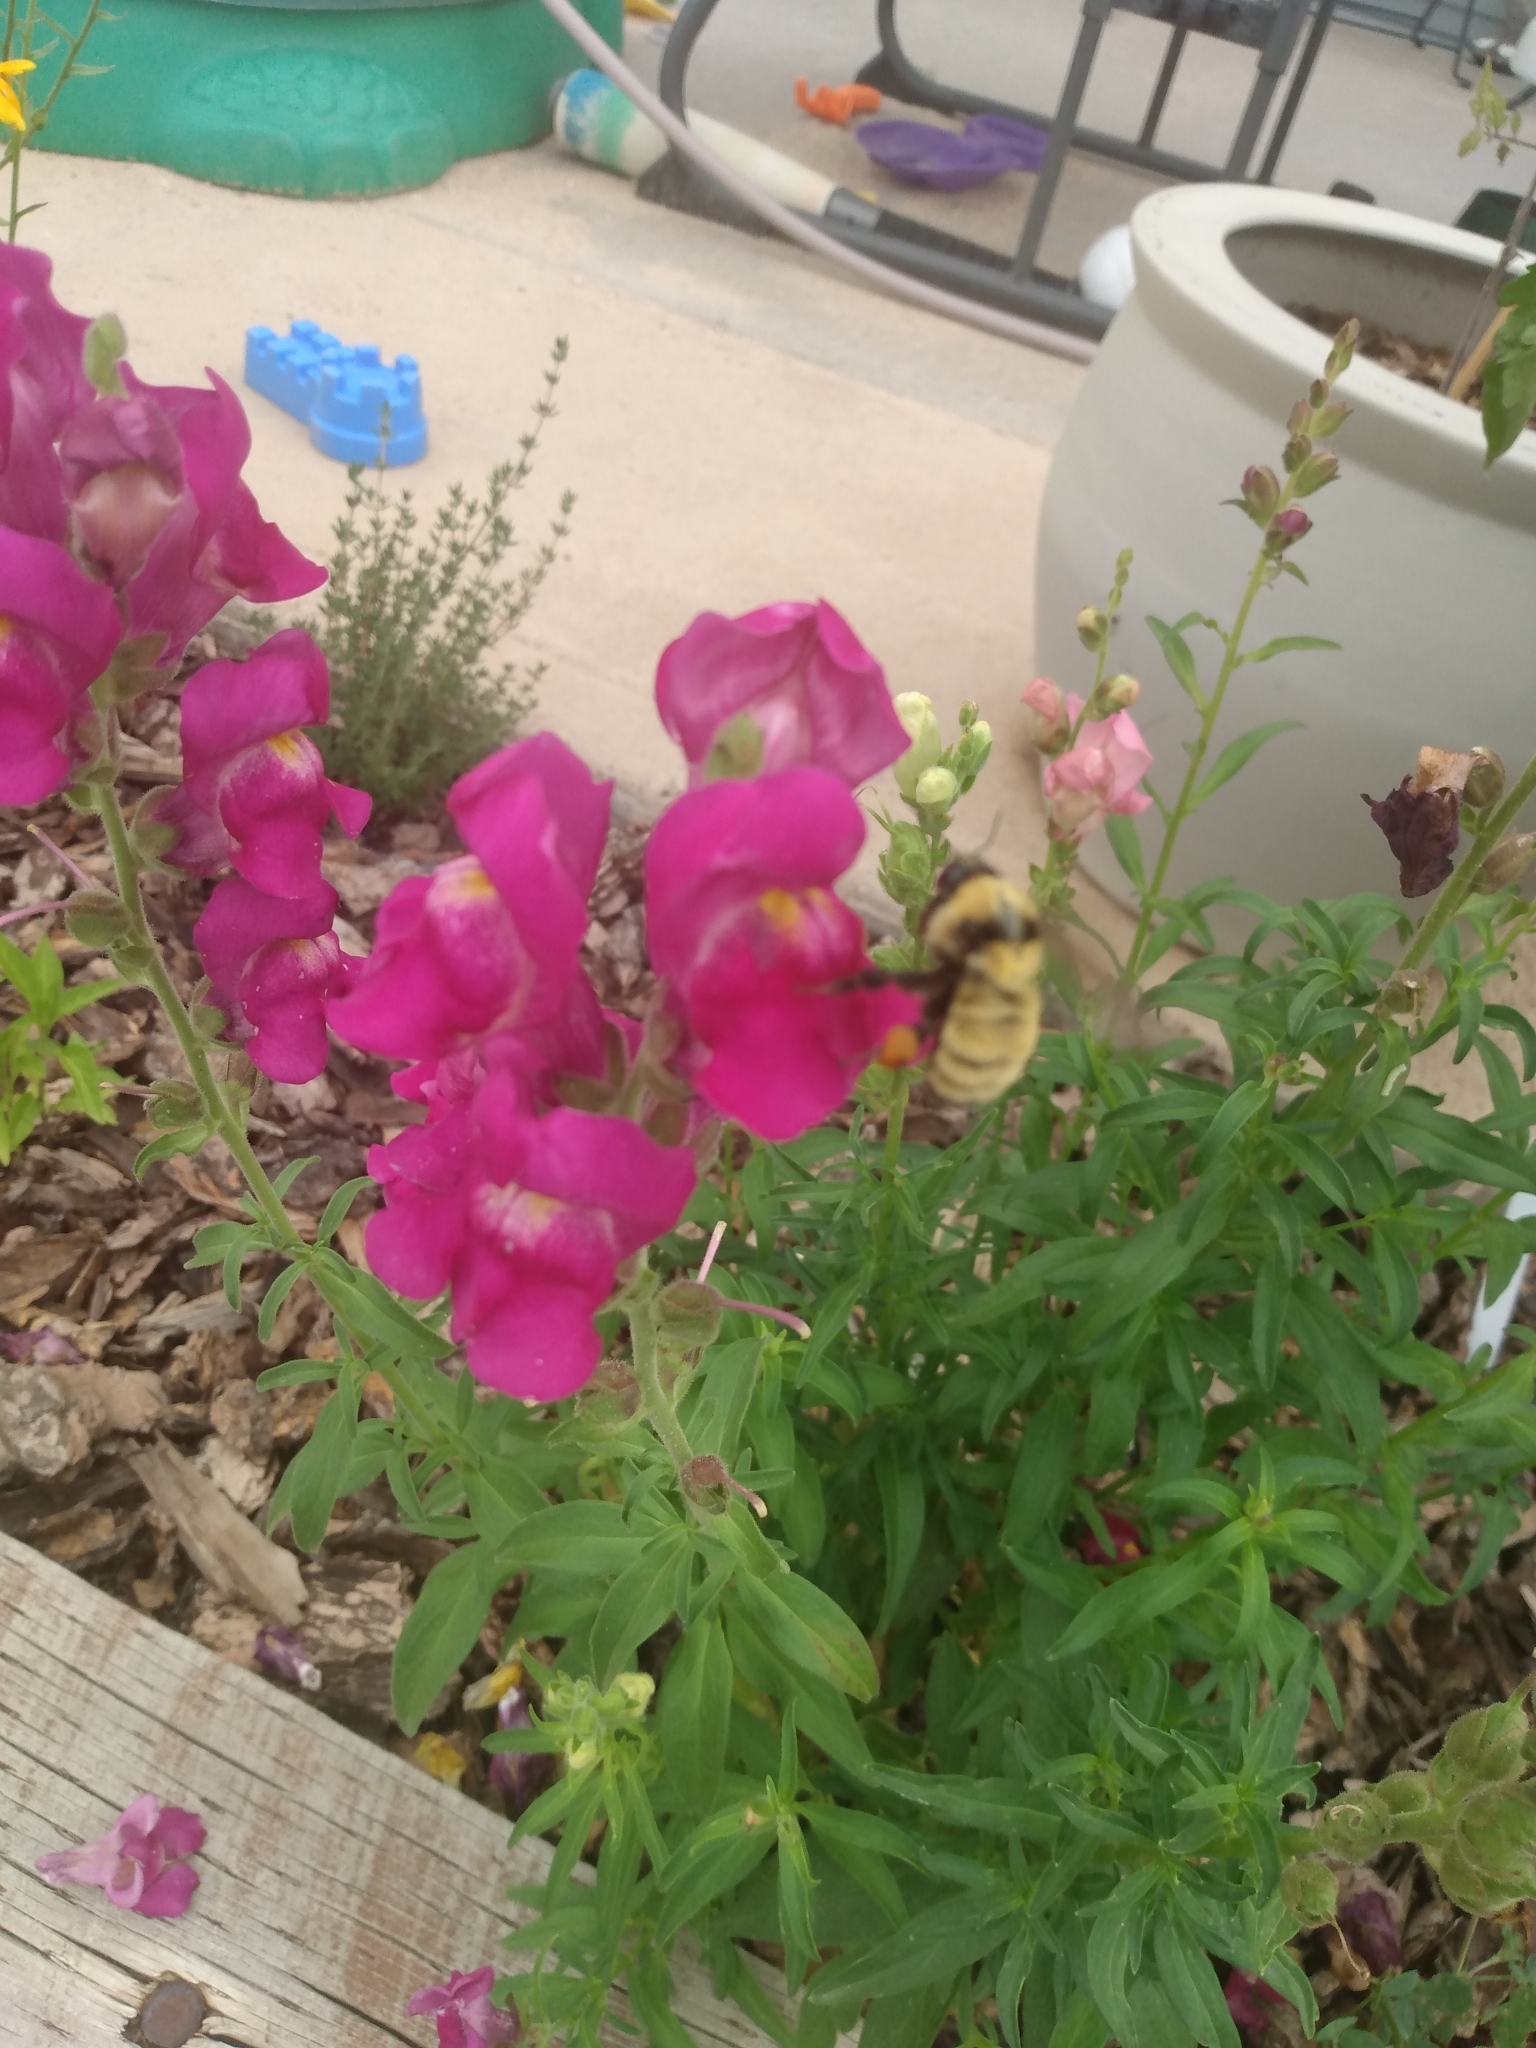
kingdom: Animalia
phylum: Arthropoda
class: Insecta
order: Hymenoptera
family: Apidae
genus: Bombus
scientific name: Bombus fervidus
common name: Yellow bumble bee
